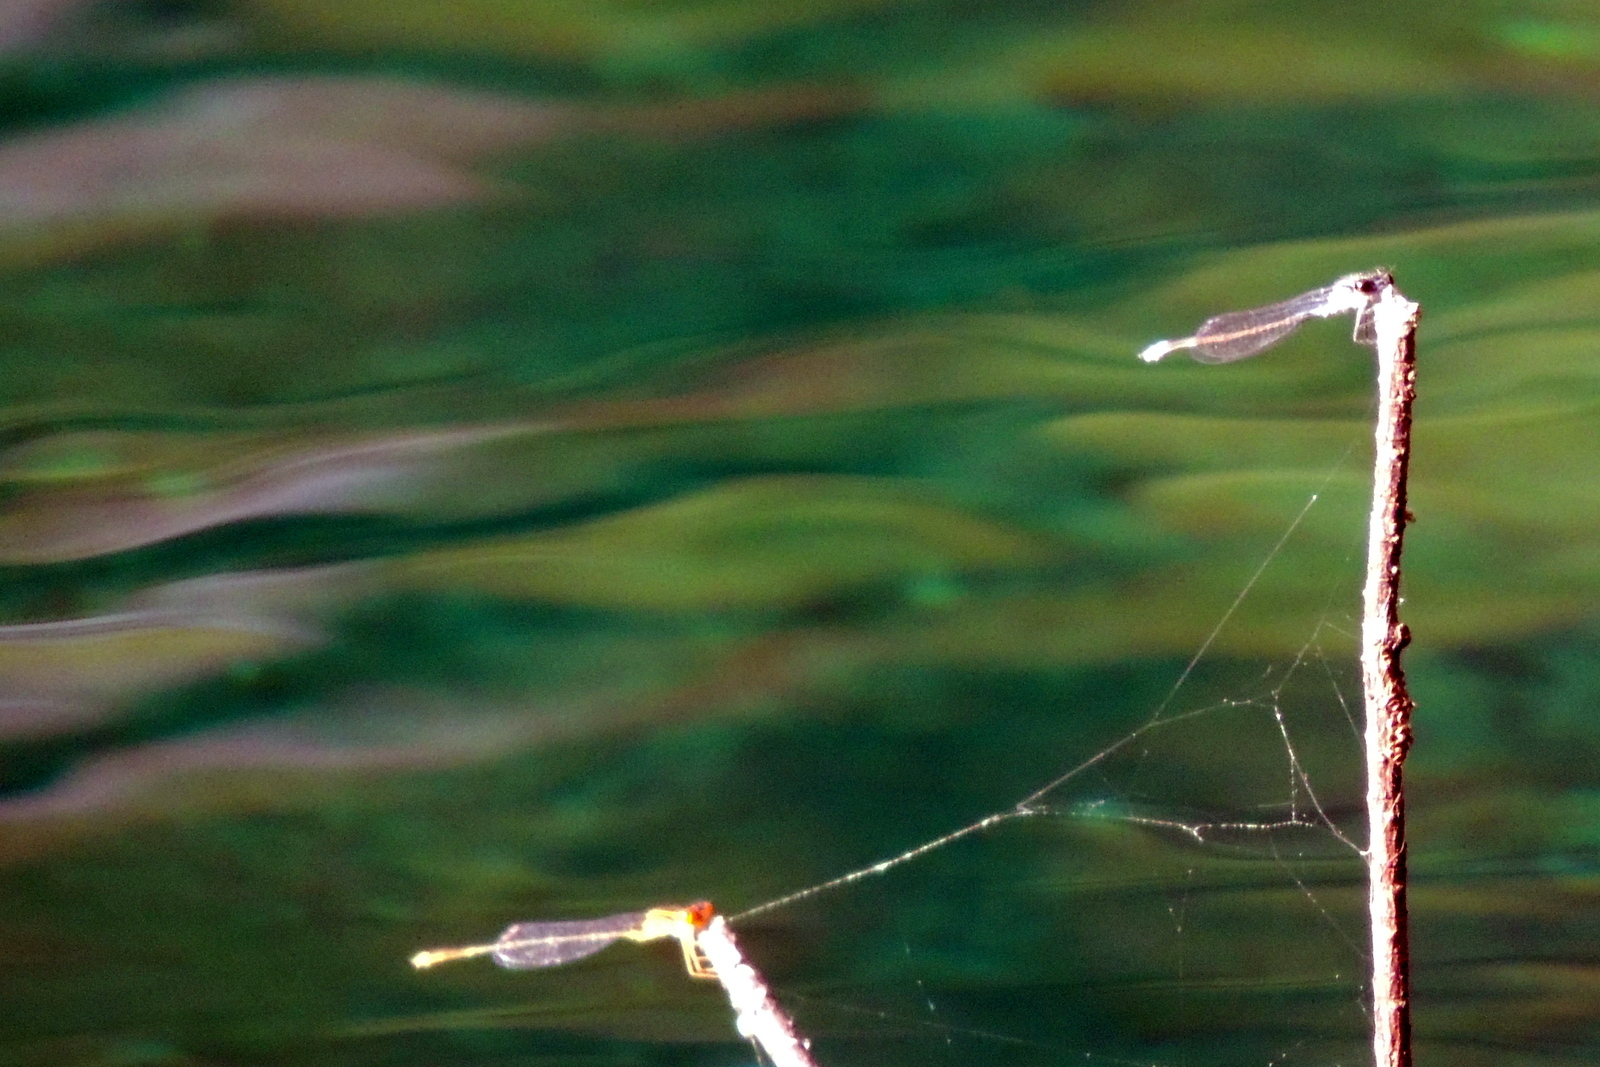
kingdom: Animalia
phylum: Arthropoda
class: Insecta
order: Odonata
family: Coenagrionidae
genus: Enallagma
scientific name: Enallagma cardenium
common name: Purple bluet
